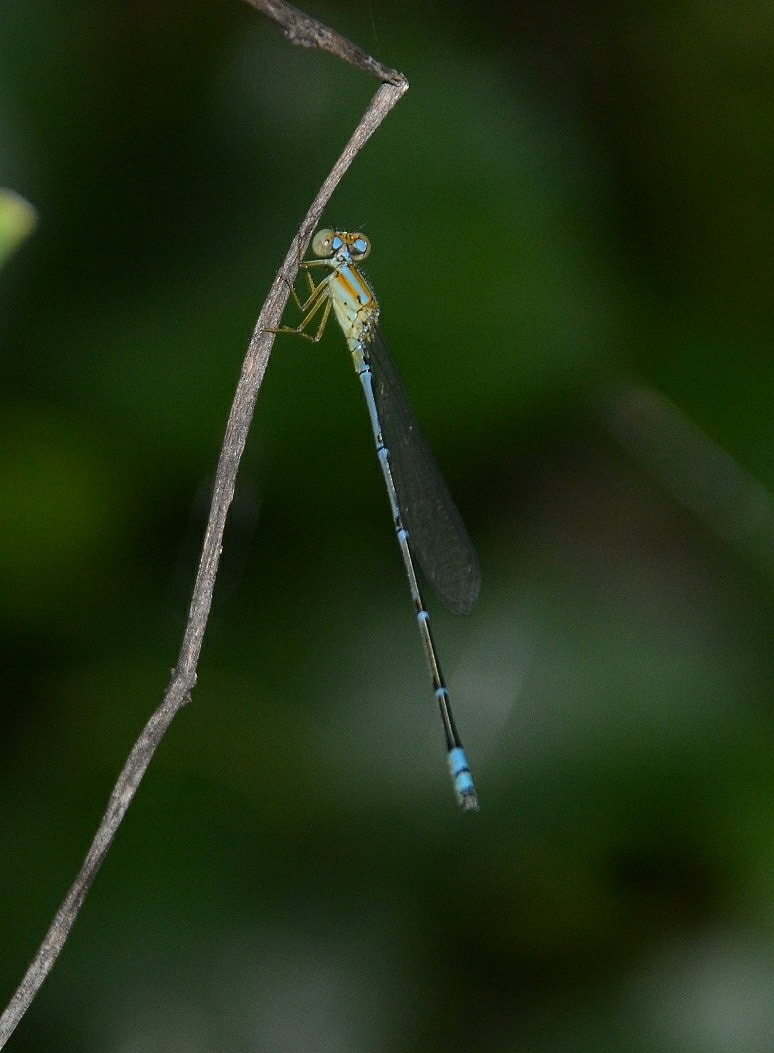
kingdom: Animalia
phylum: Arthropoda
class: Insecta
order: Odonata
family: Coenagrionidae
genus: Pseudagrion
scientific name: Pseudagrion microcephalum
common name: Blue riverdamsel
